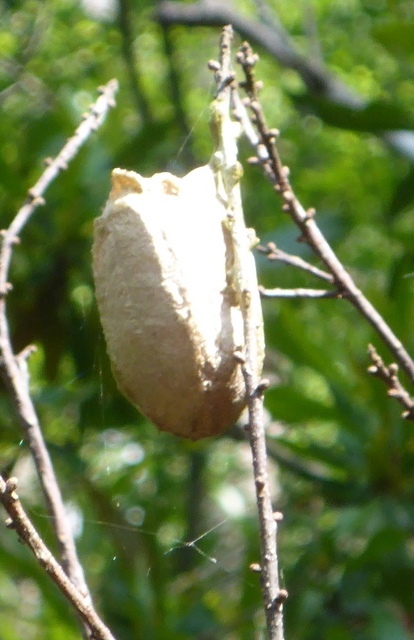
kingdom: Animalia
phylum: Arthropoda
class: Insecta
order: Lepidoptera
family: Saturniidae
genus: Antheraea
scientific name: Antheraea polyphemus
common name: Polyphemus moth
